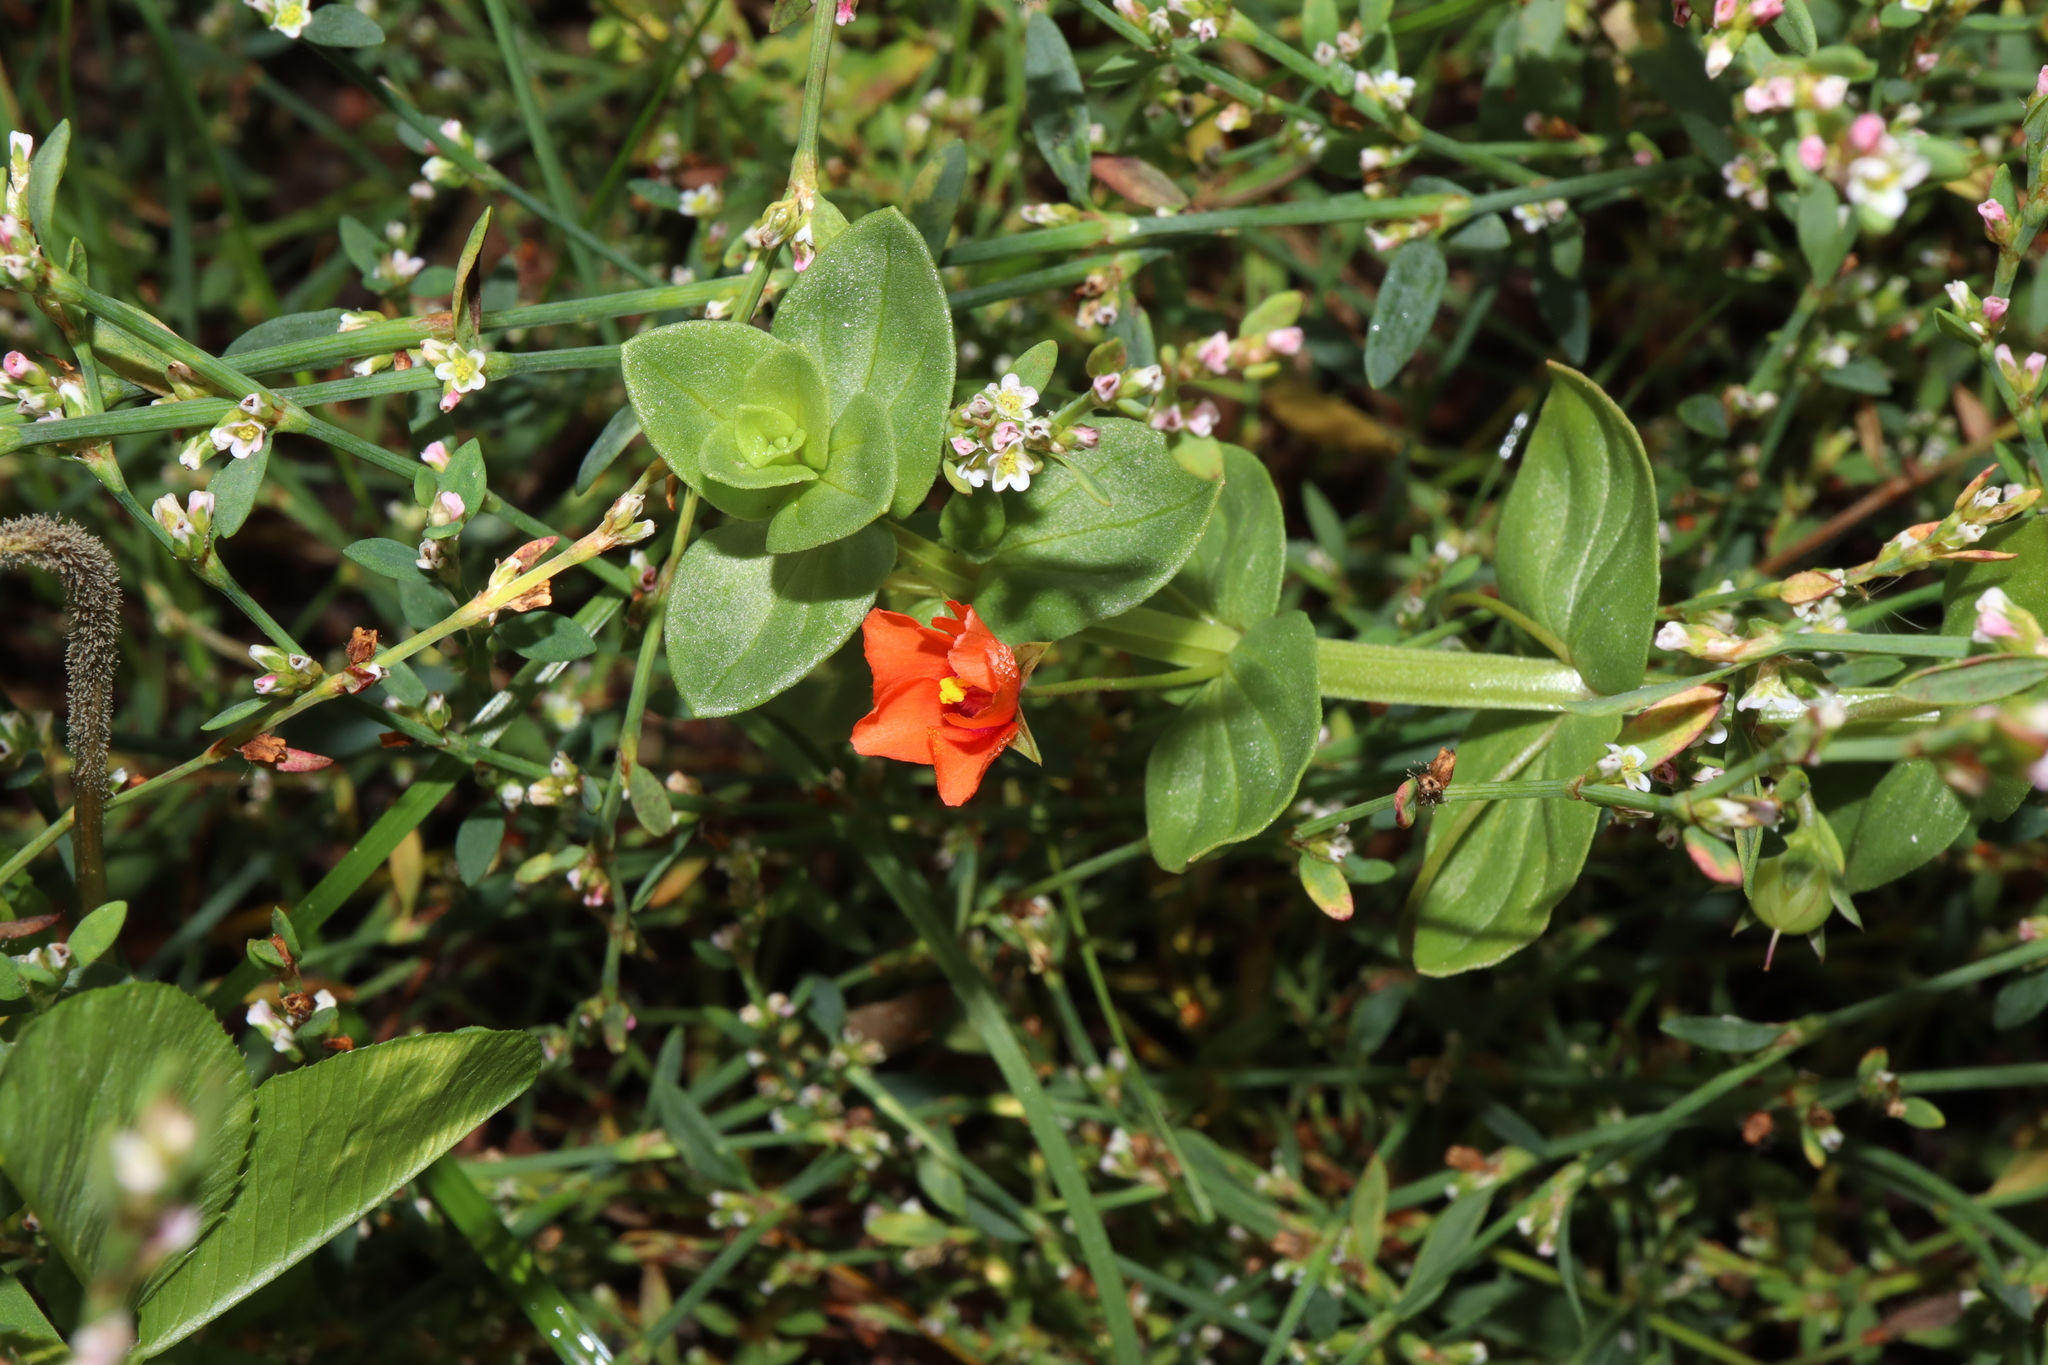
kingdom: Plantae
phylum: Tracheophyta
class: Magnoliopsida
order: Ericales
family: Primulaceae
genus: Lysimachia
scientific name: Lysimachia arvensis
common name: Scarlet pimpernel
